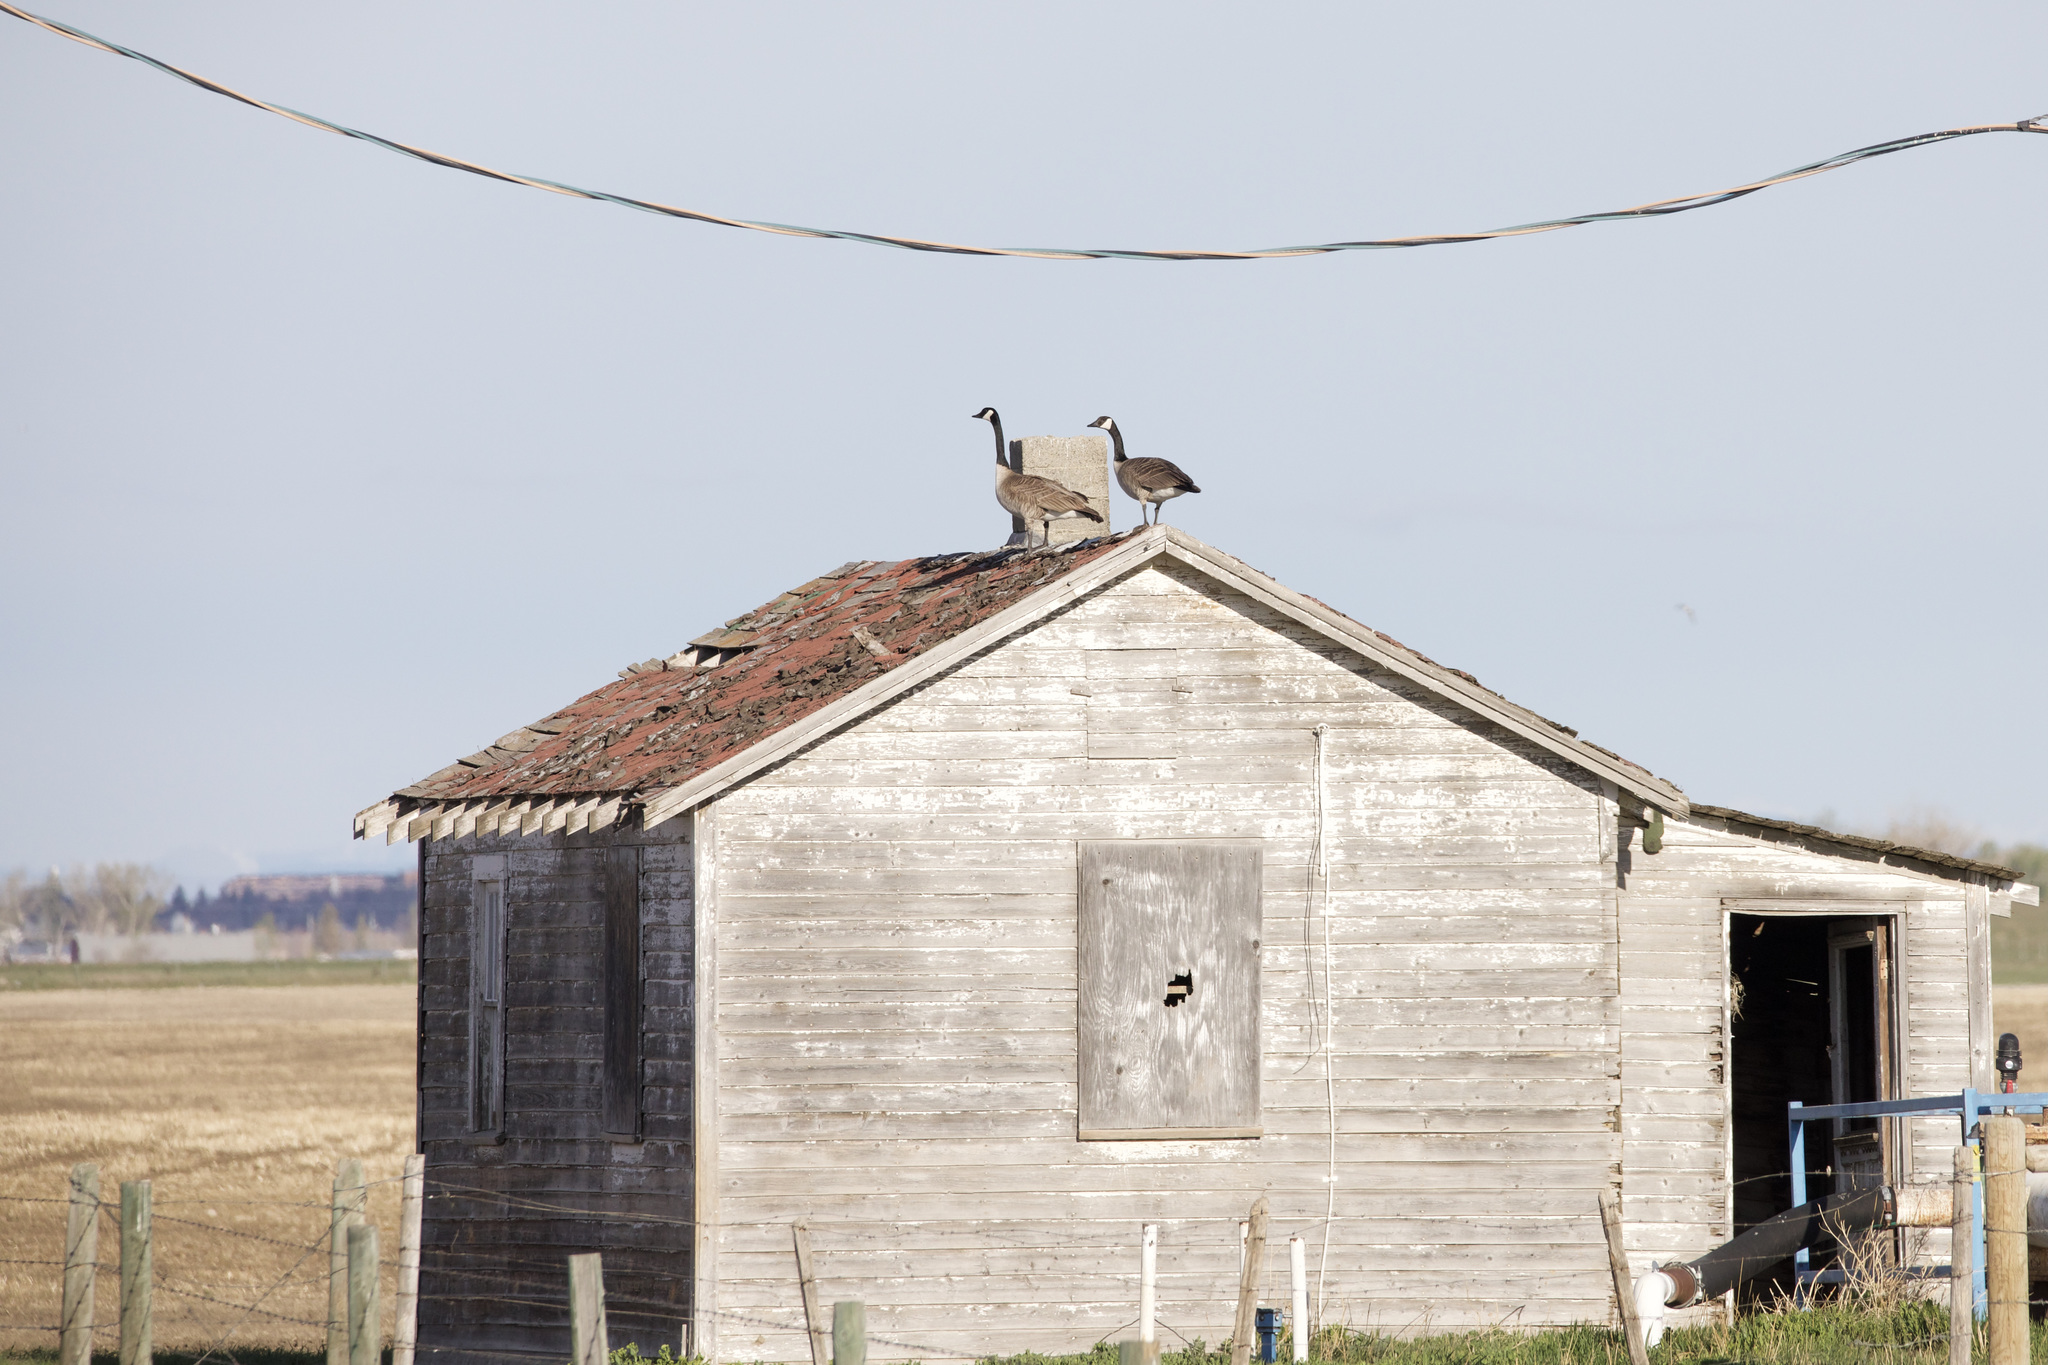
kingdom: Animalia
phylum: Chordata
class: Aves
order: Anseriformes
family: Anatidae
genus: Branta
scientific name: Branta canadensis
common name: Canada goose
